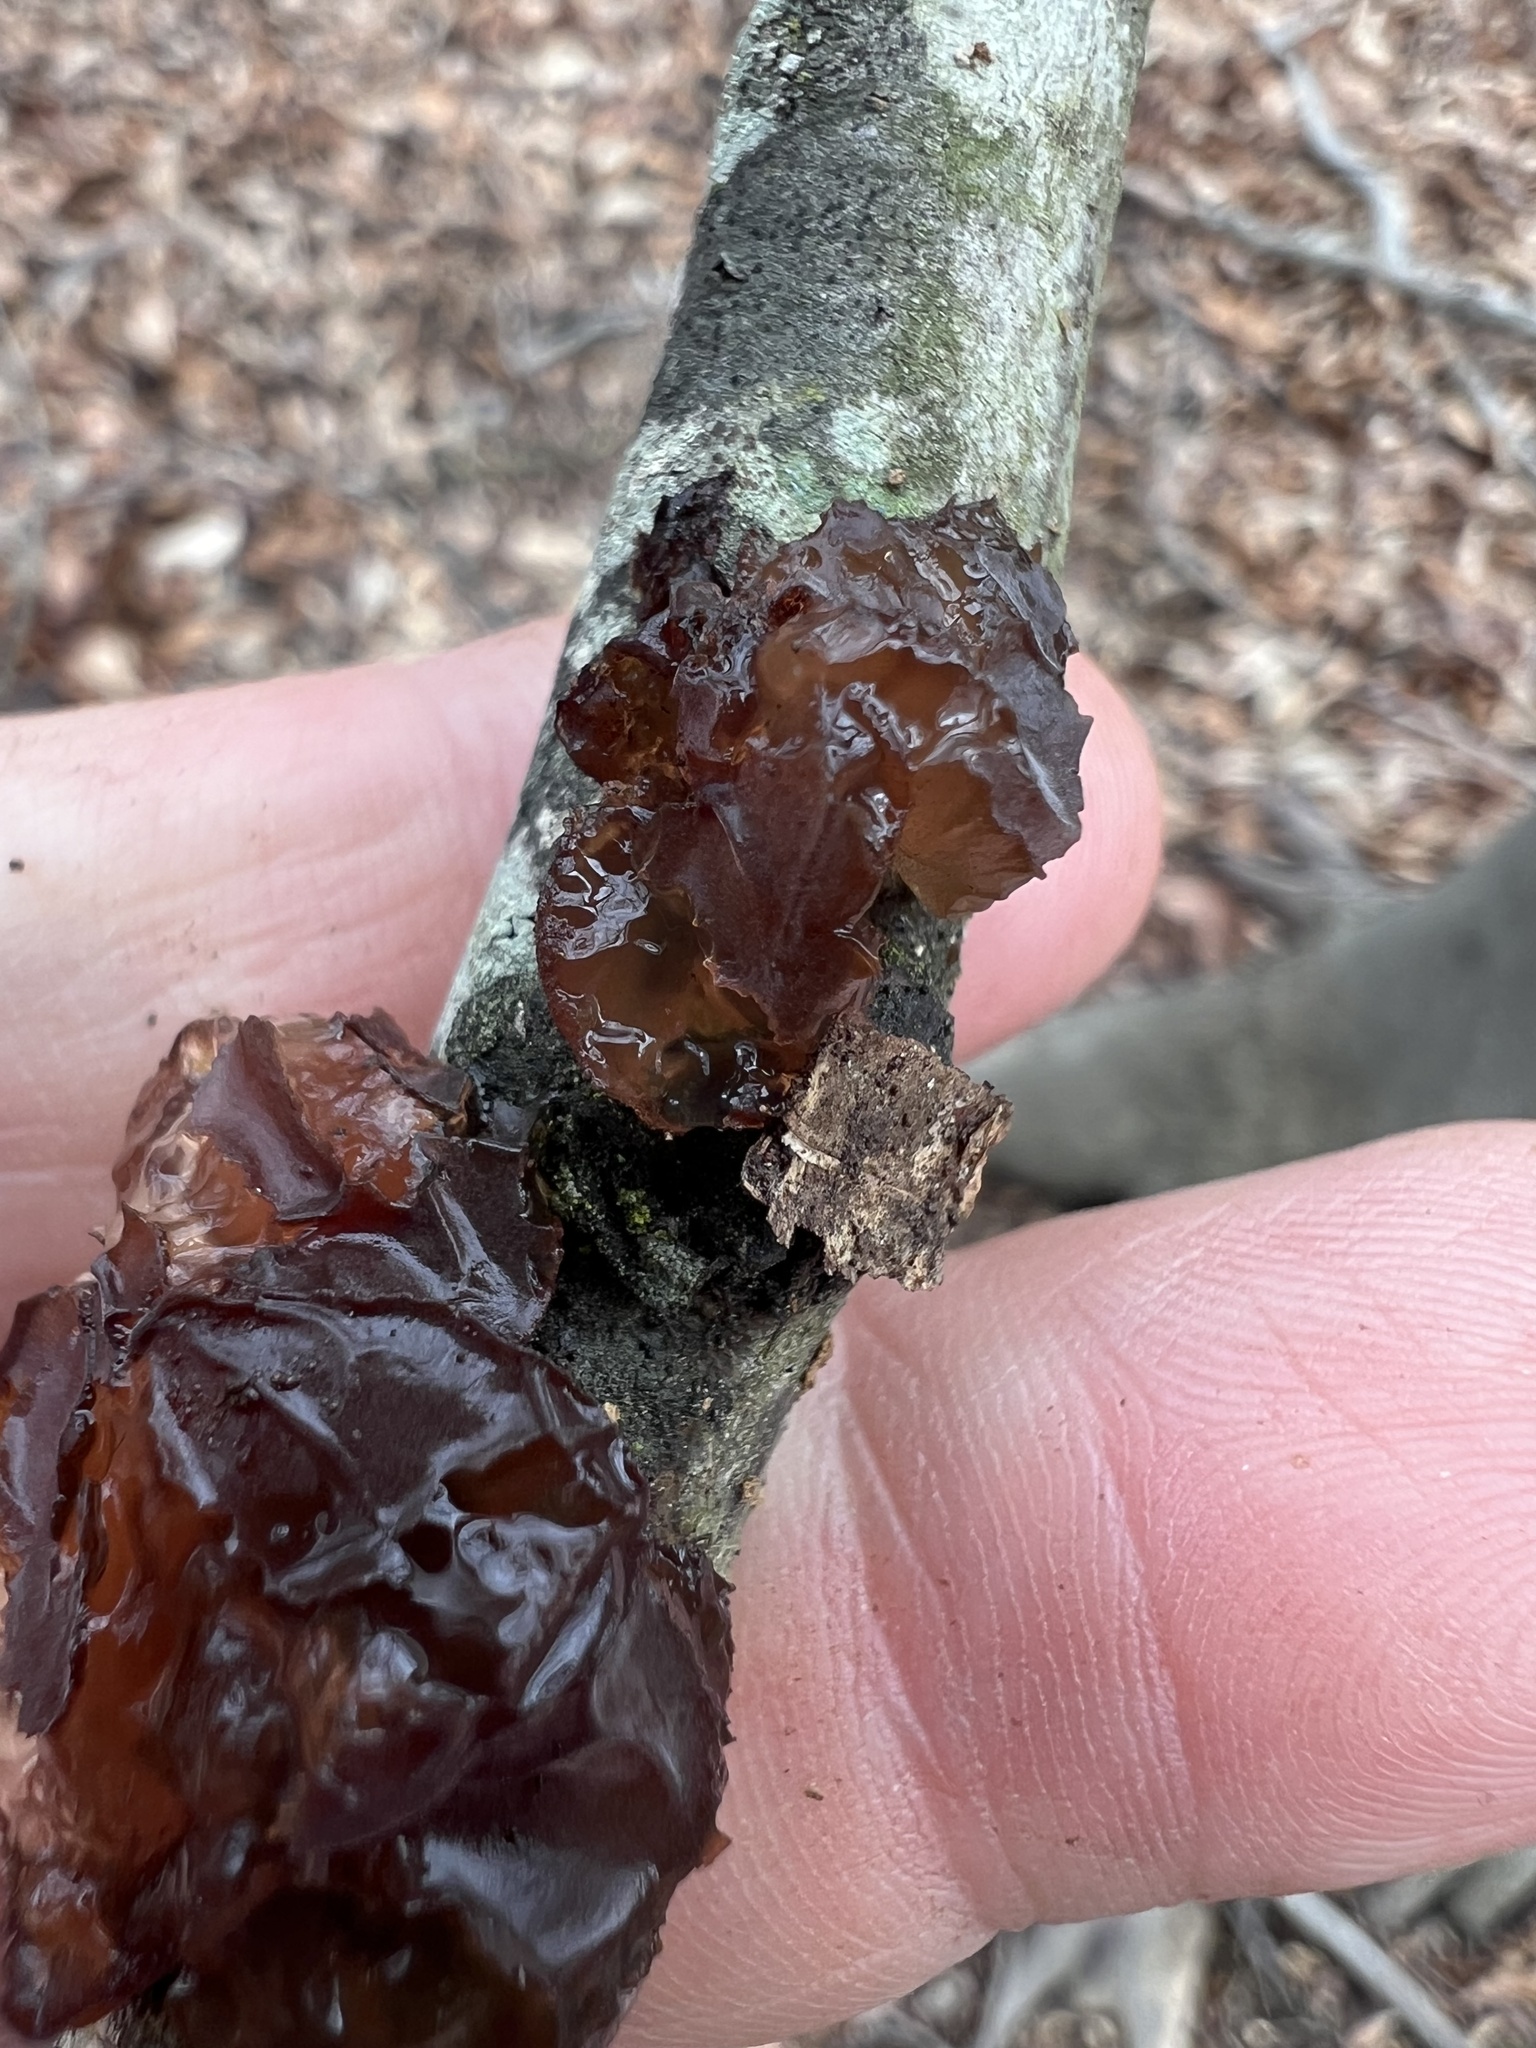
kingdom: Fungi
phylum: Basidiomycota
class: Agaricomycetes
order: Auriculariales
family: Auriculariaceae
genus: Exidia
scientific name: Exidia
